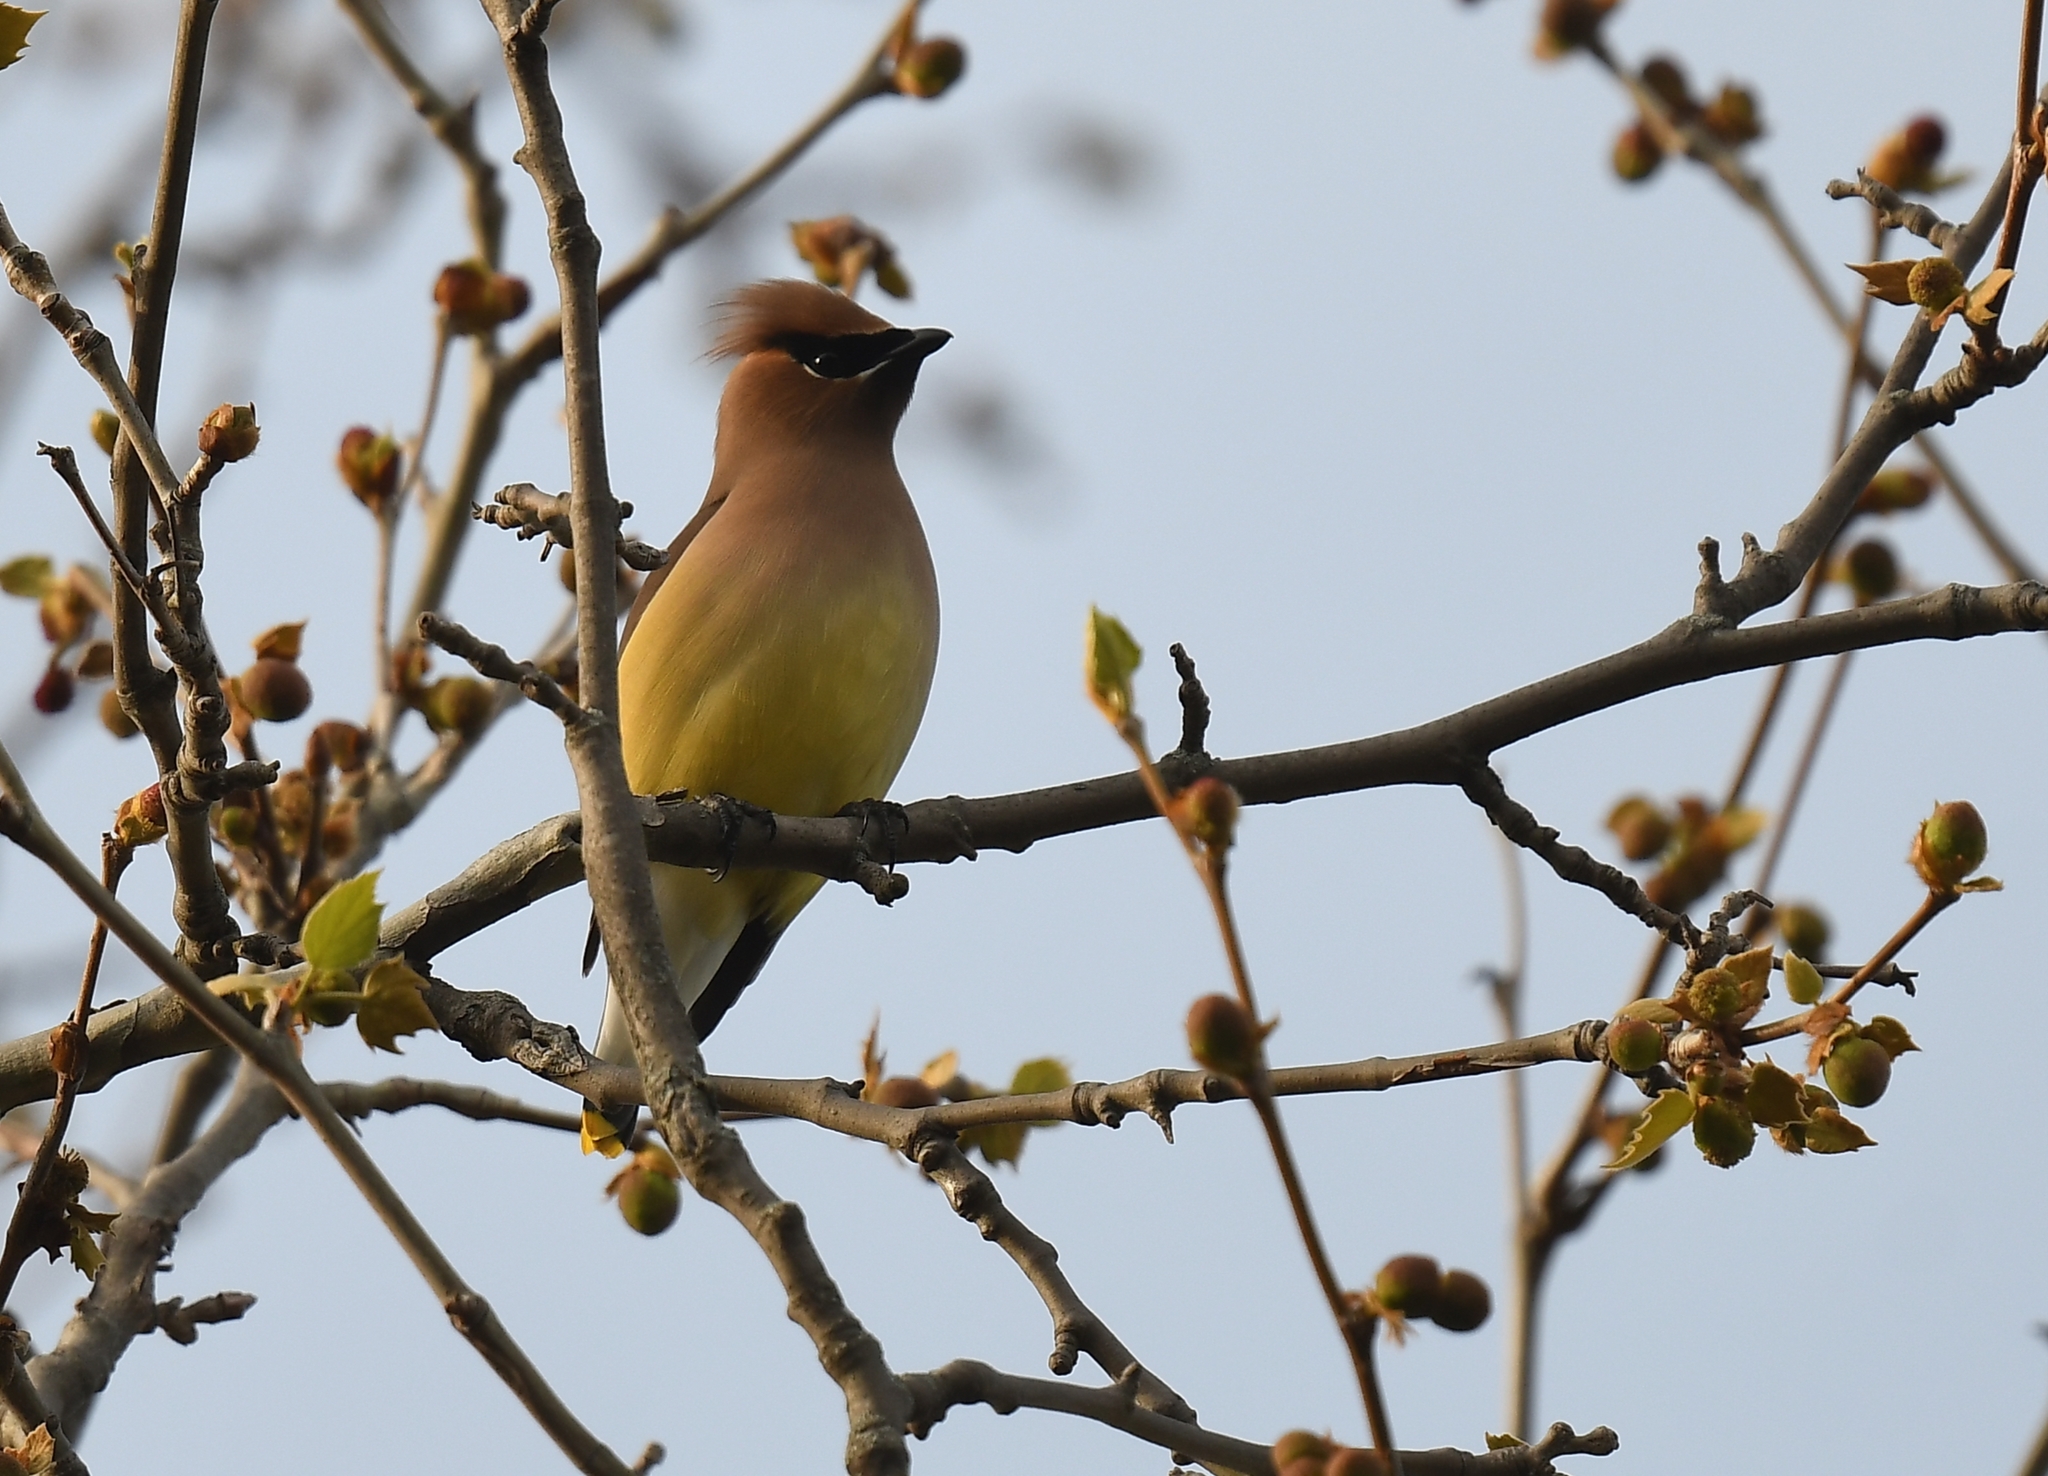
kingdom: Animalia
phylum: Chordata
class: Aves
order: Passeriformes
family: Bombycillidae
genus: Bombycilla
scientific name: Bombycilla cedrorum
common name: Cedar waxwing
